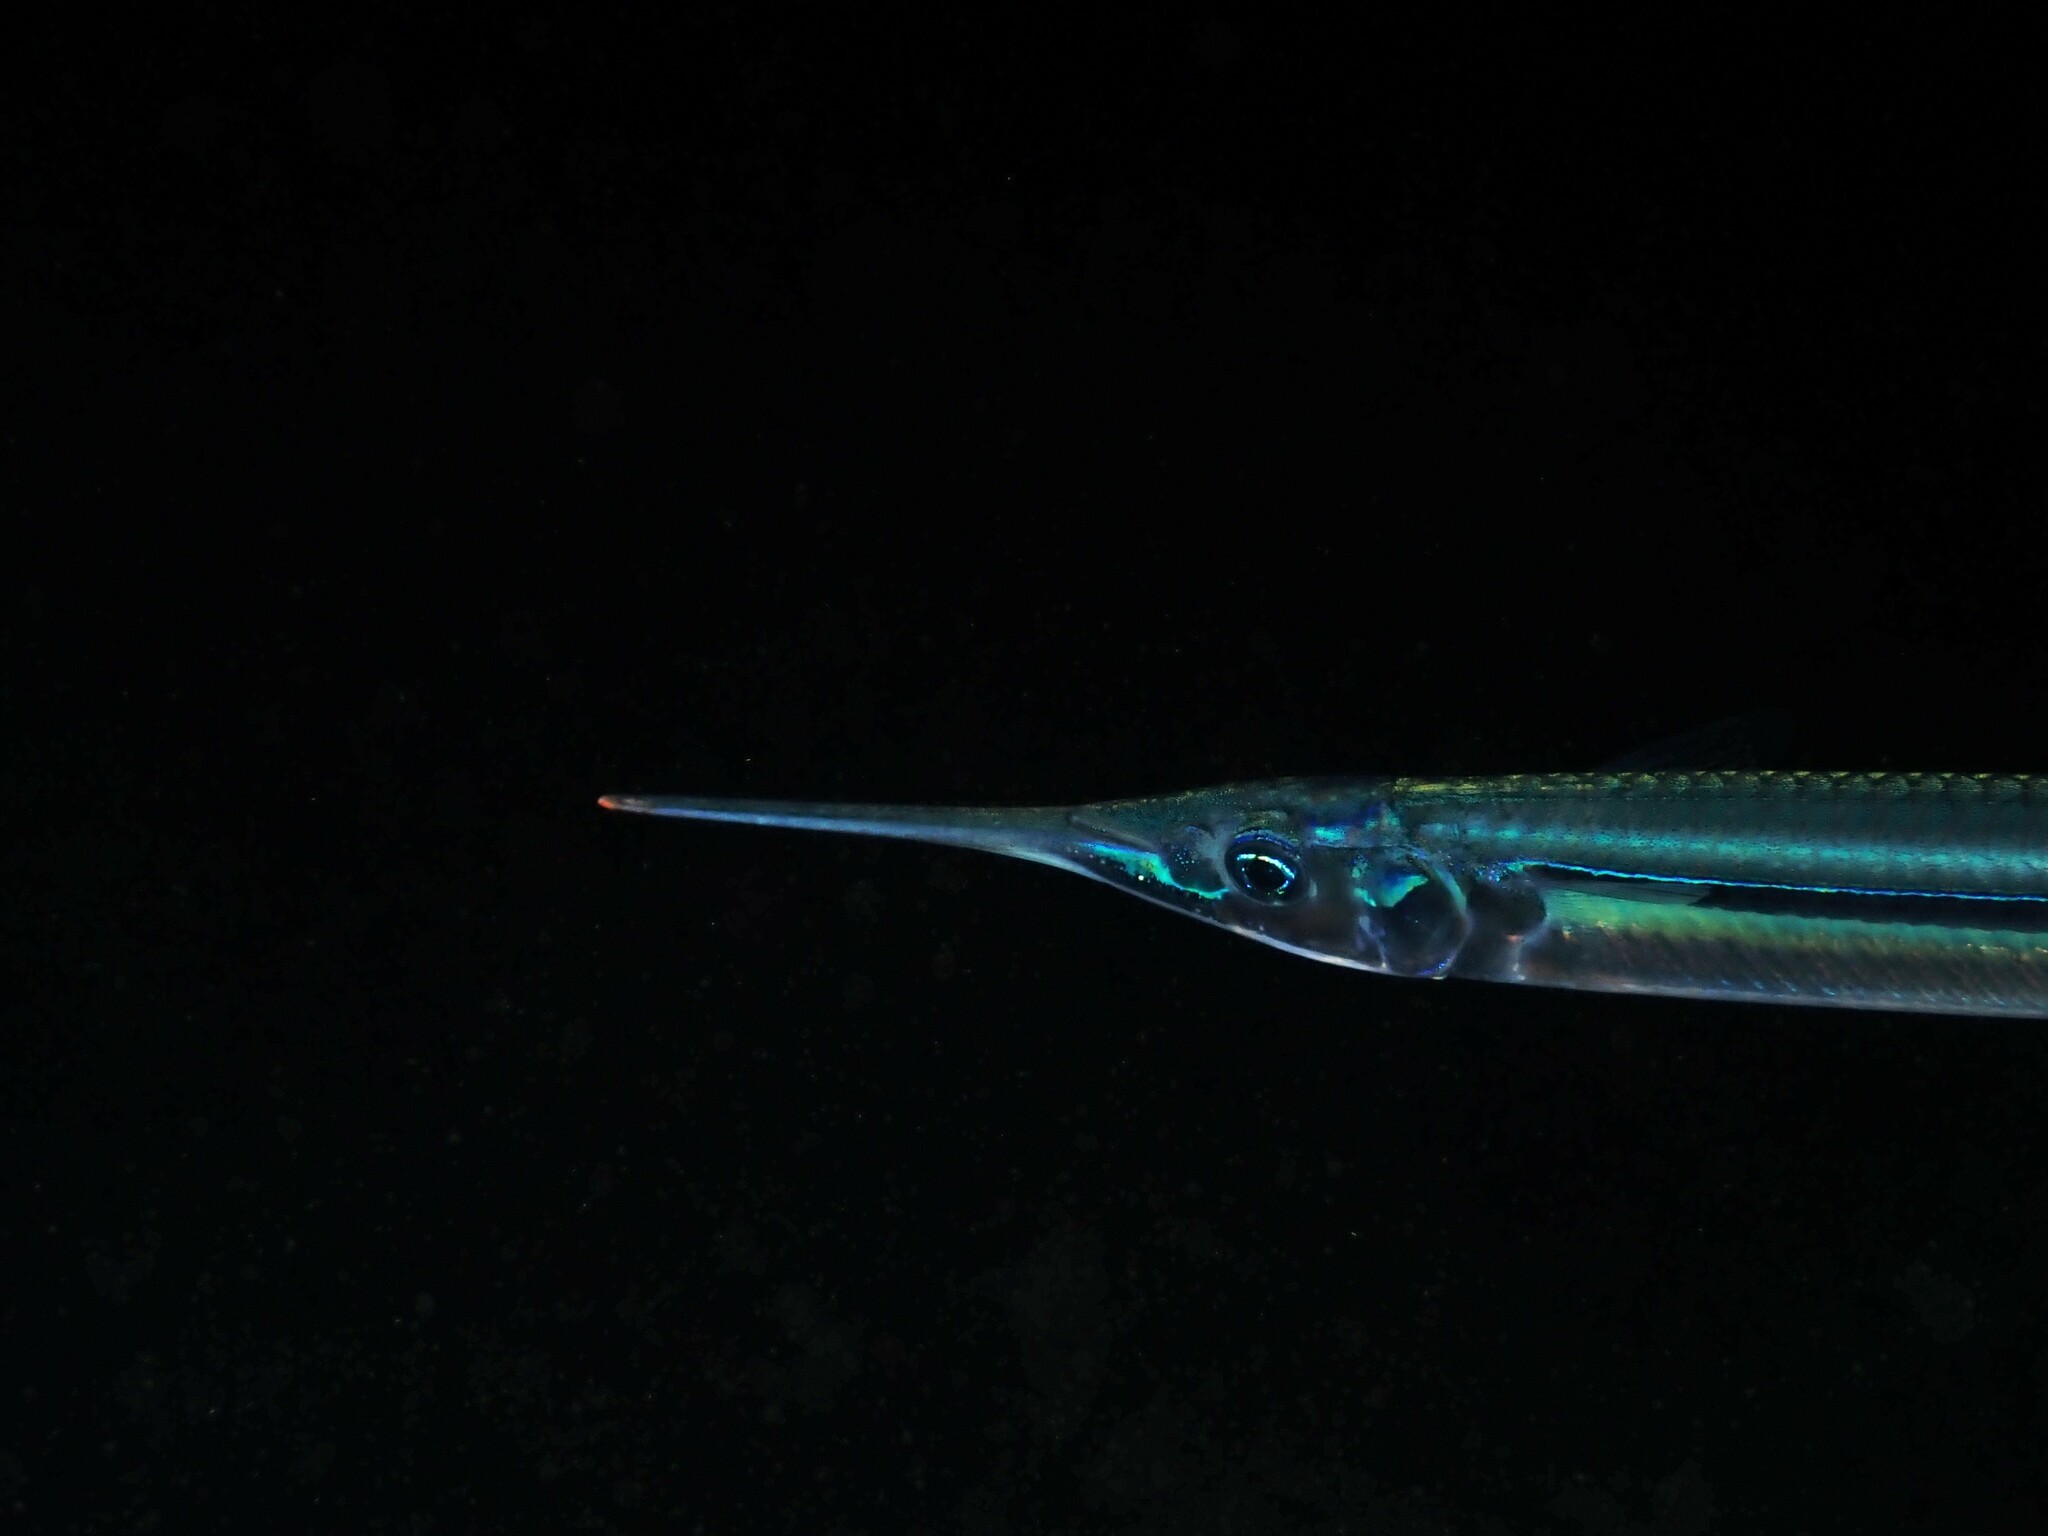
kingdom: Animalia
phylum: Chordata
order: Beloniformes
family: Hemiramphidae
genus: Hyporhamphus
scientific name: Hyporhamphus ihi
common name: Garfish
